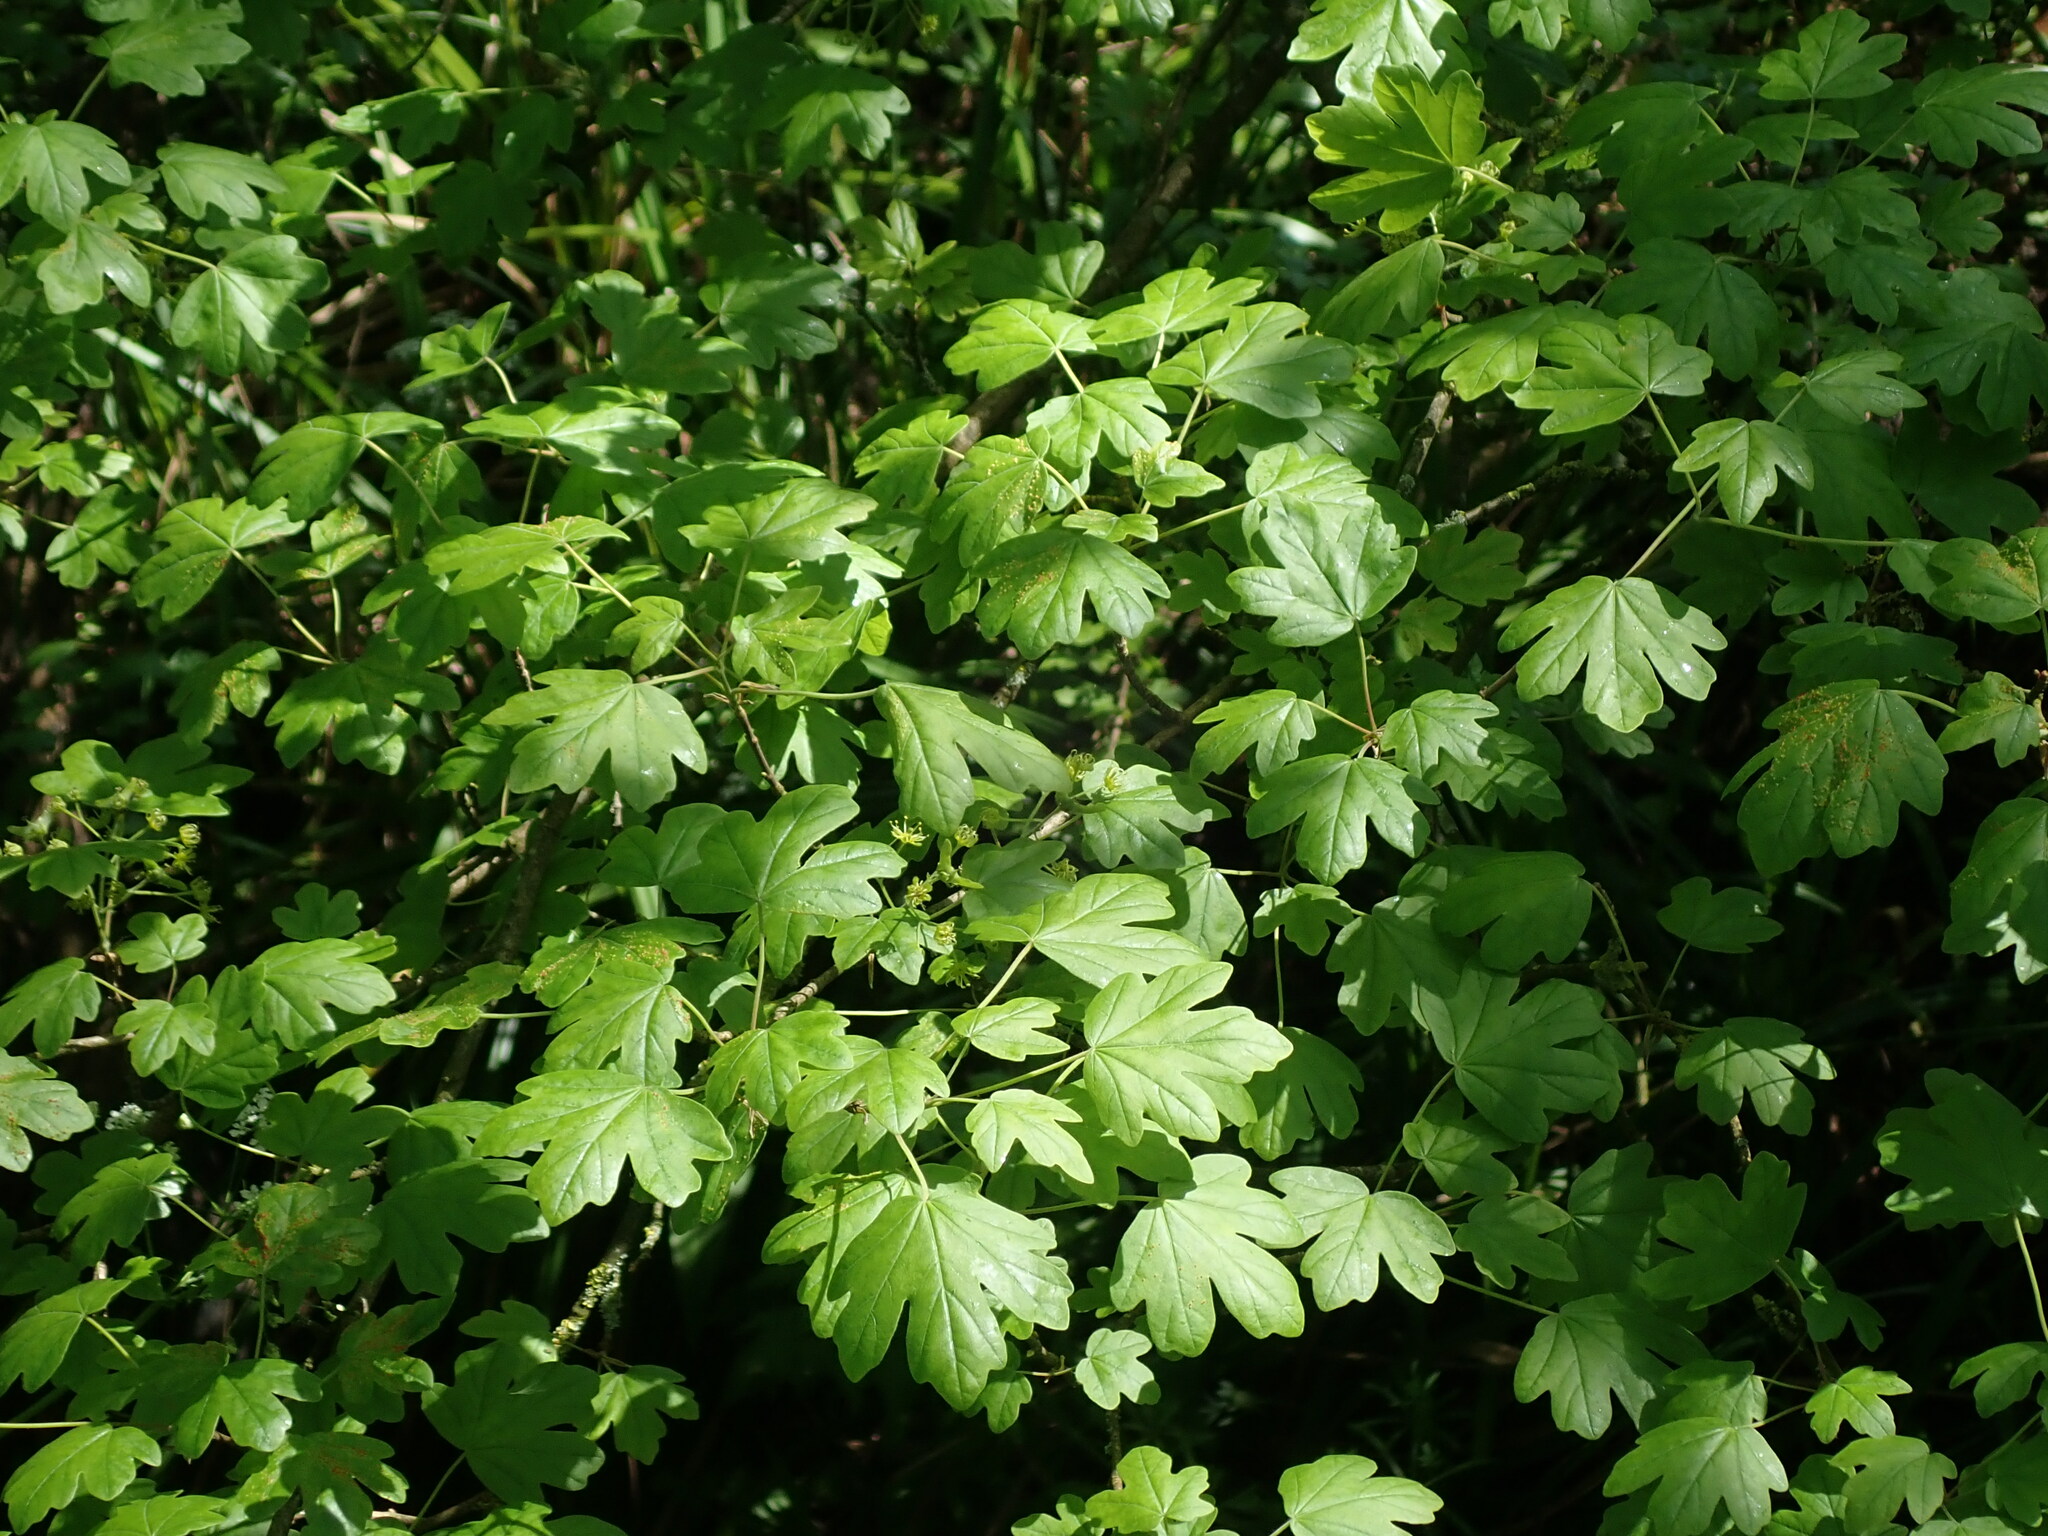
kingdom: Plantae
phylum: Tracheophyta
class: Magnoliopsida
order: Sapindales
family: Sapindaceae
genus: Acer
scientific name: Acer campestre
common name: Field maple
